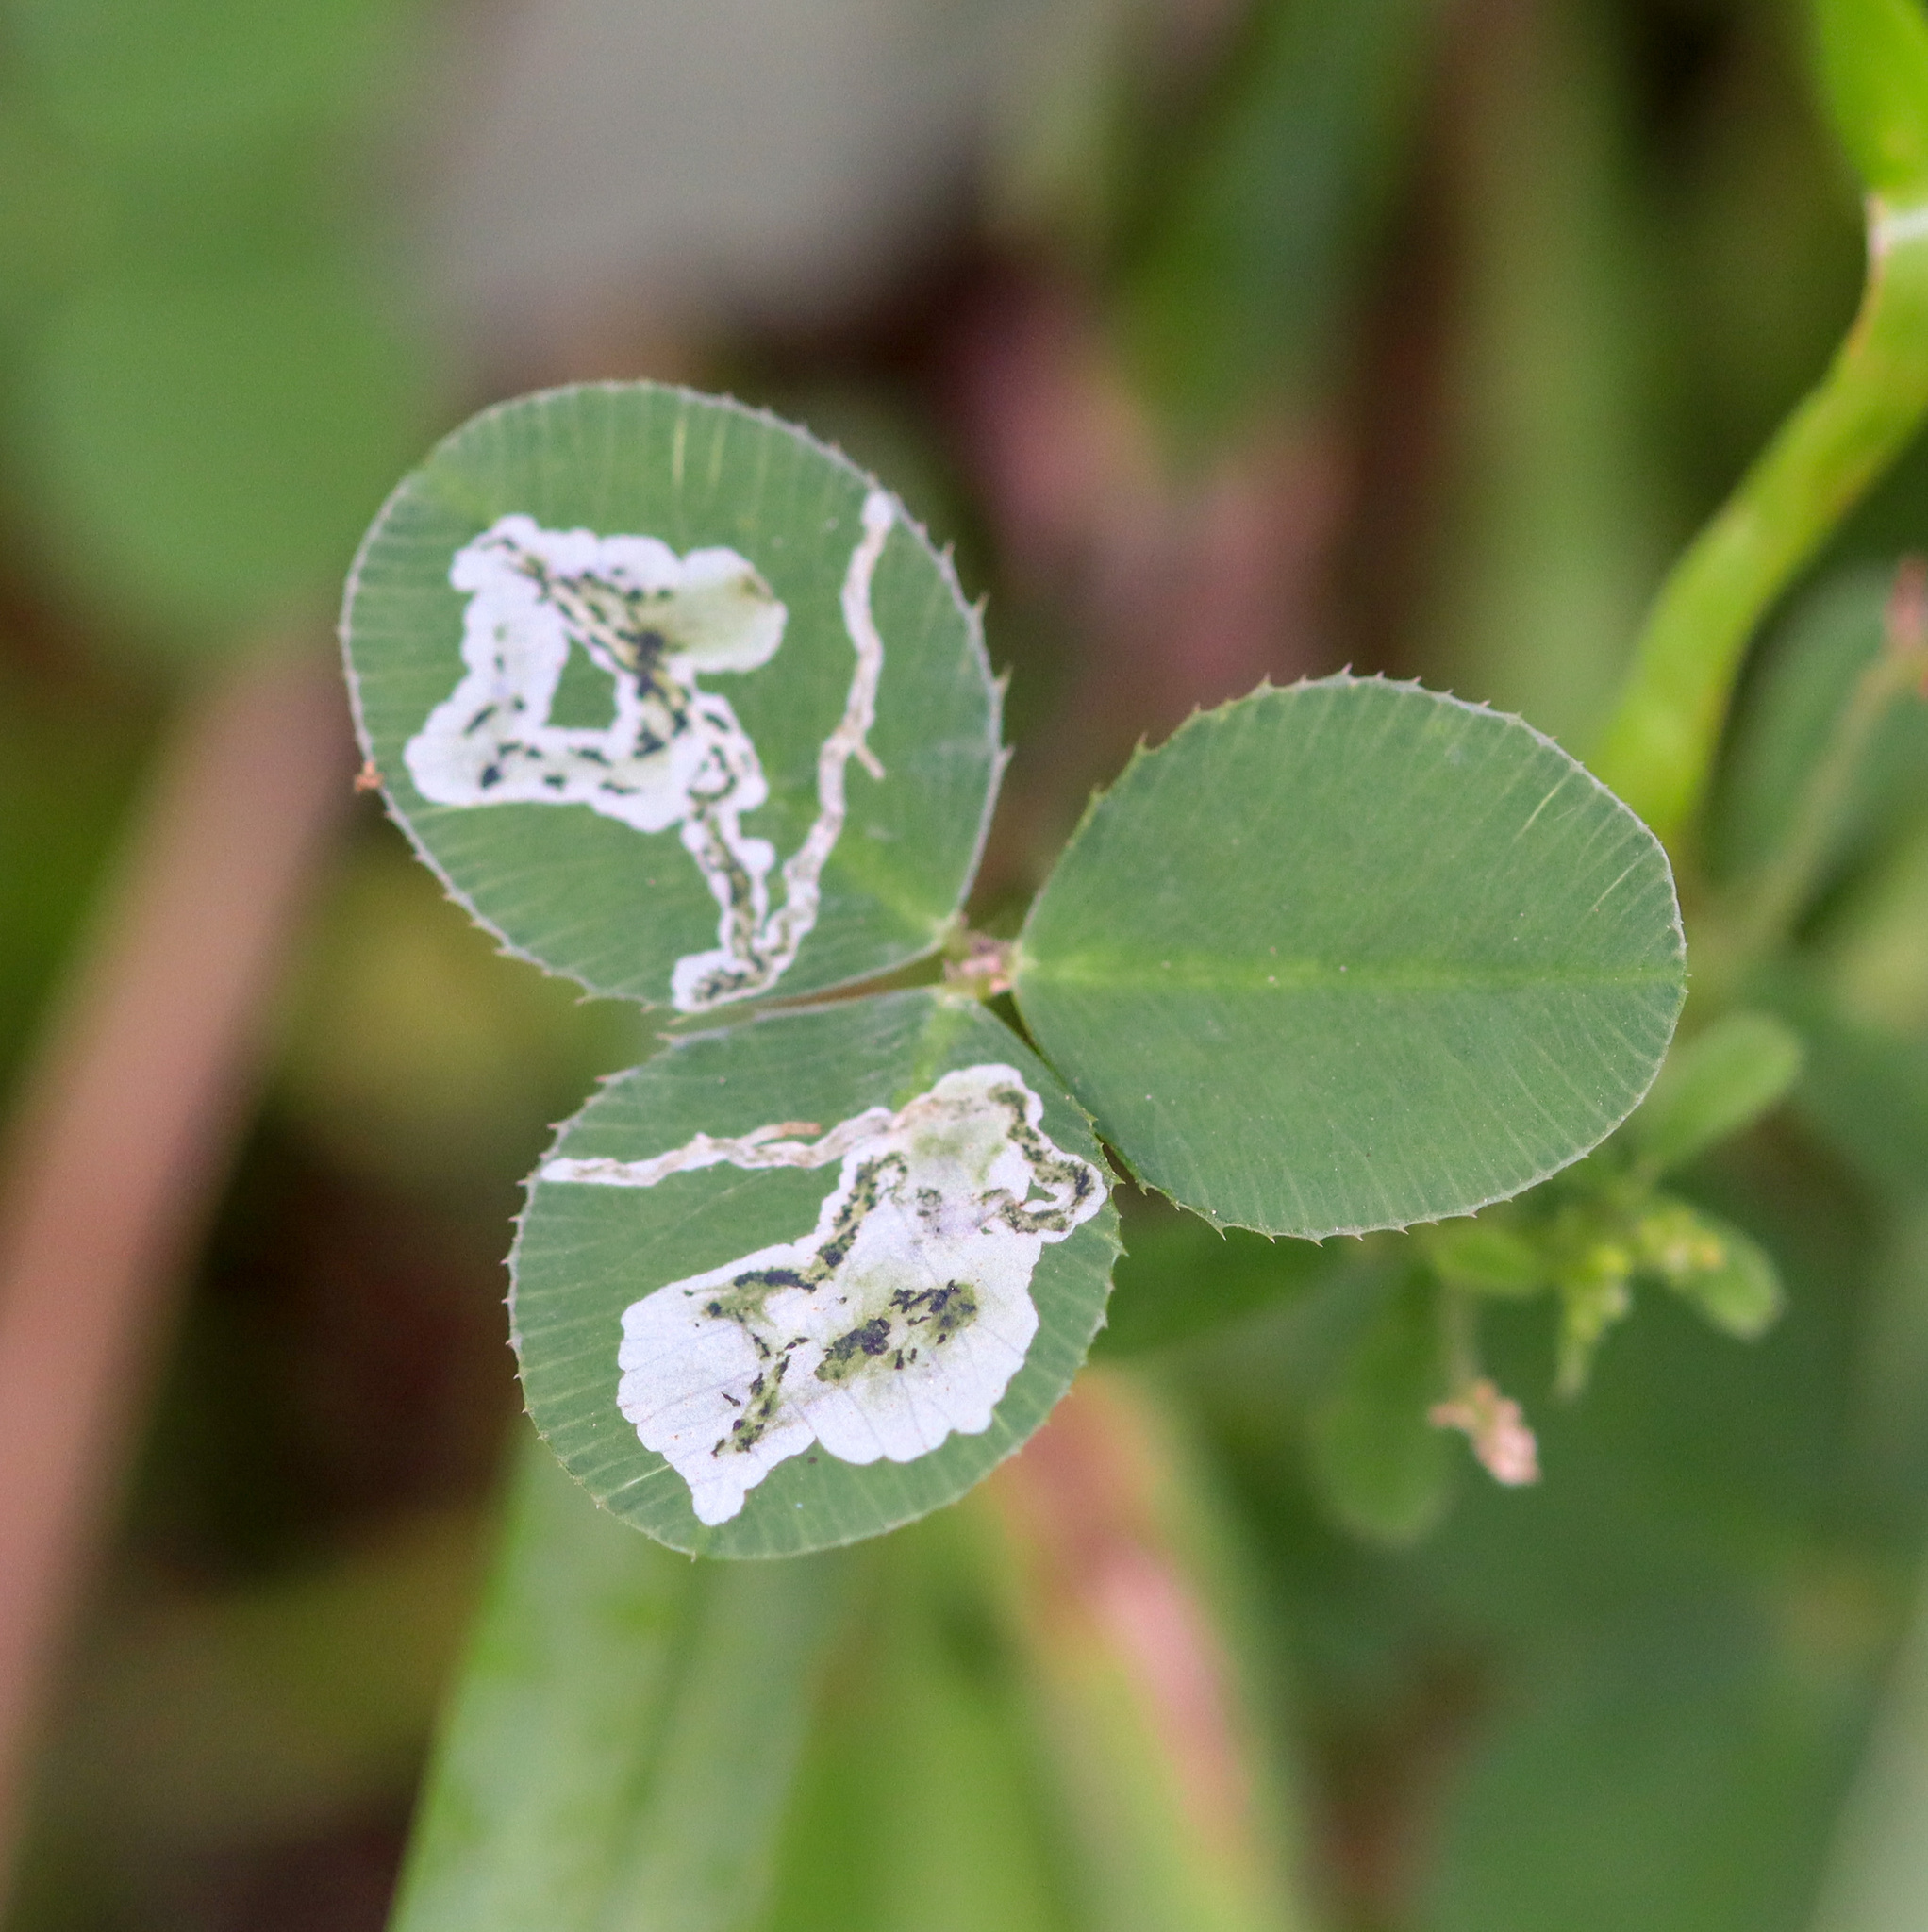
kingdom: Animalia
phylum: Arthropoda
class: Insecta
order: Diptera
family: Agromyzidae
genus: Liriomyza
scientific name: Liriomyza fricki
